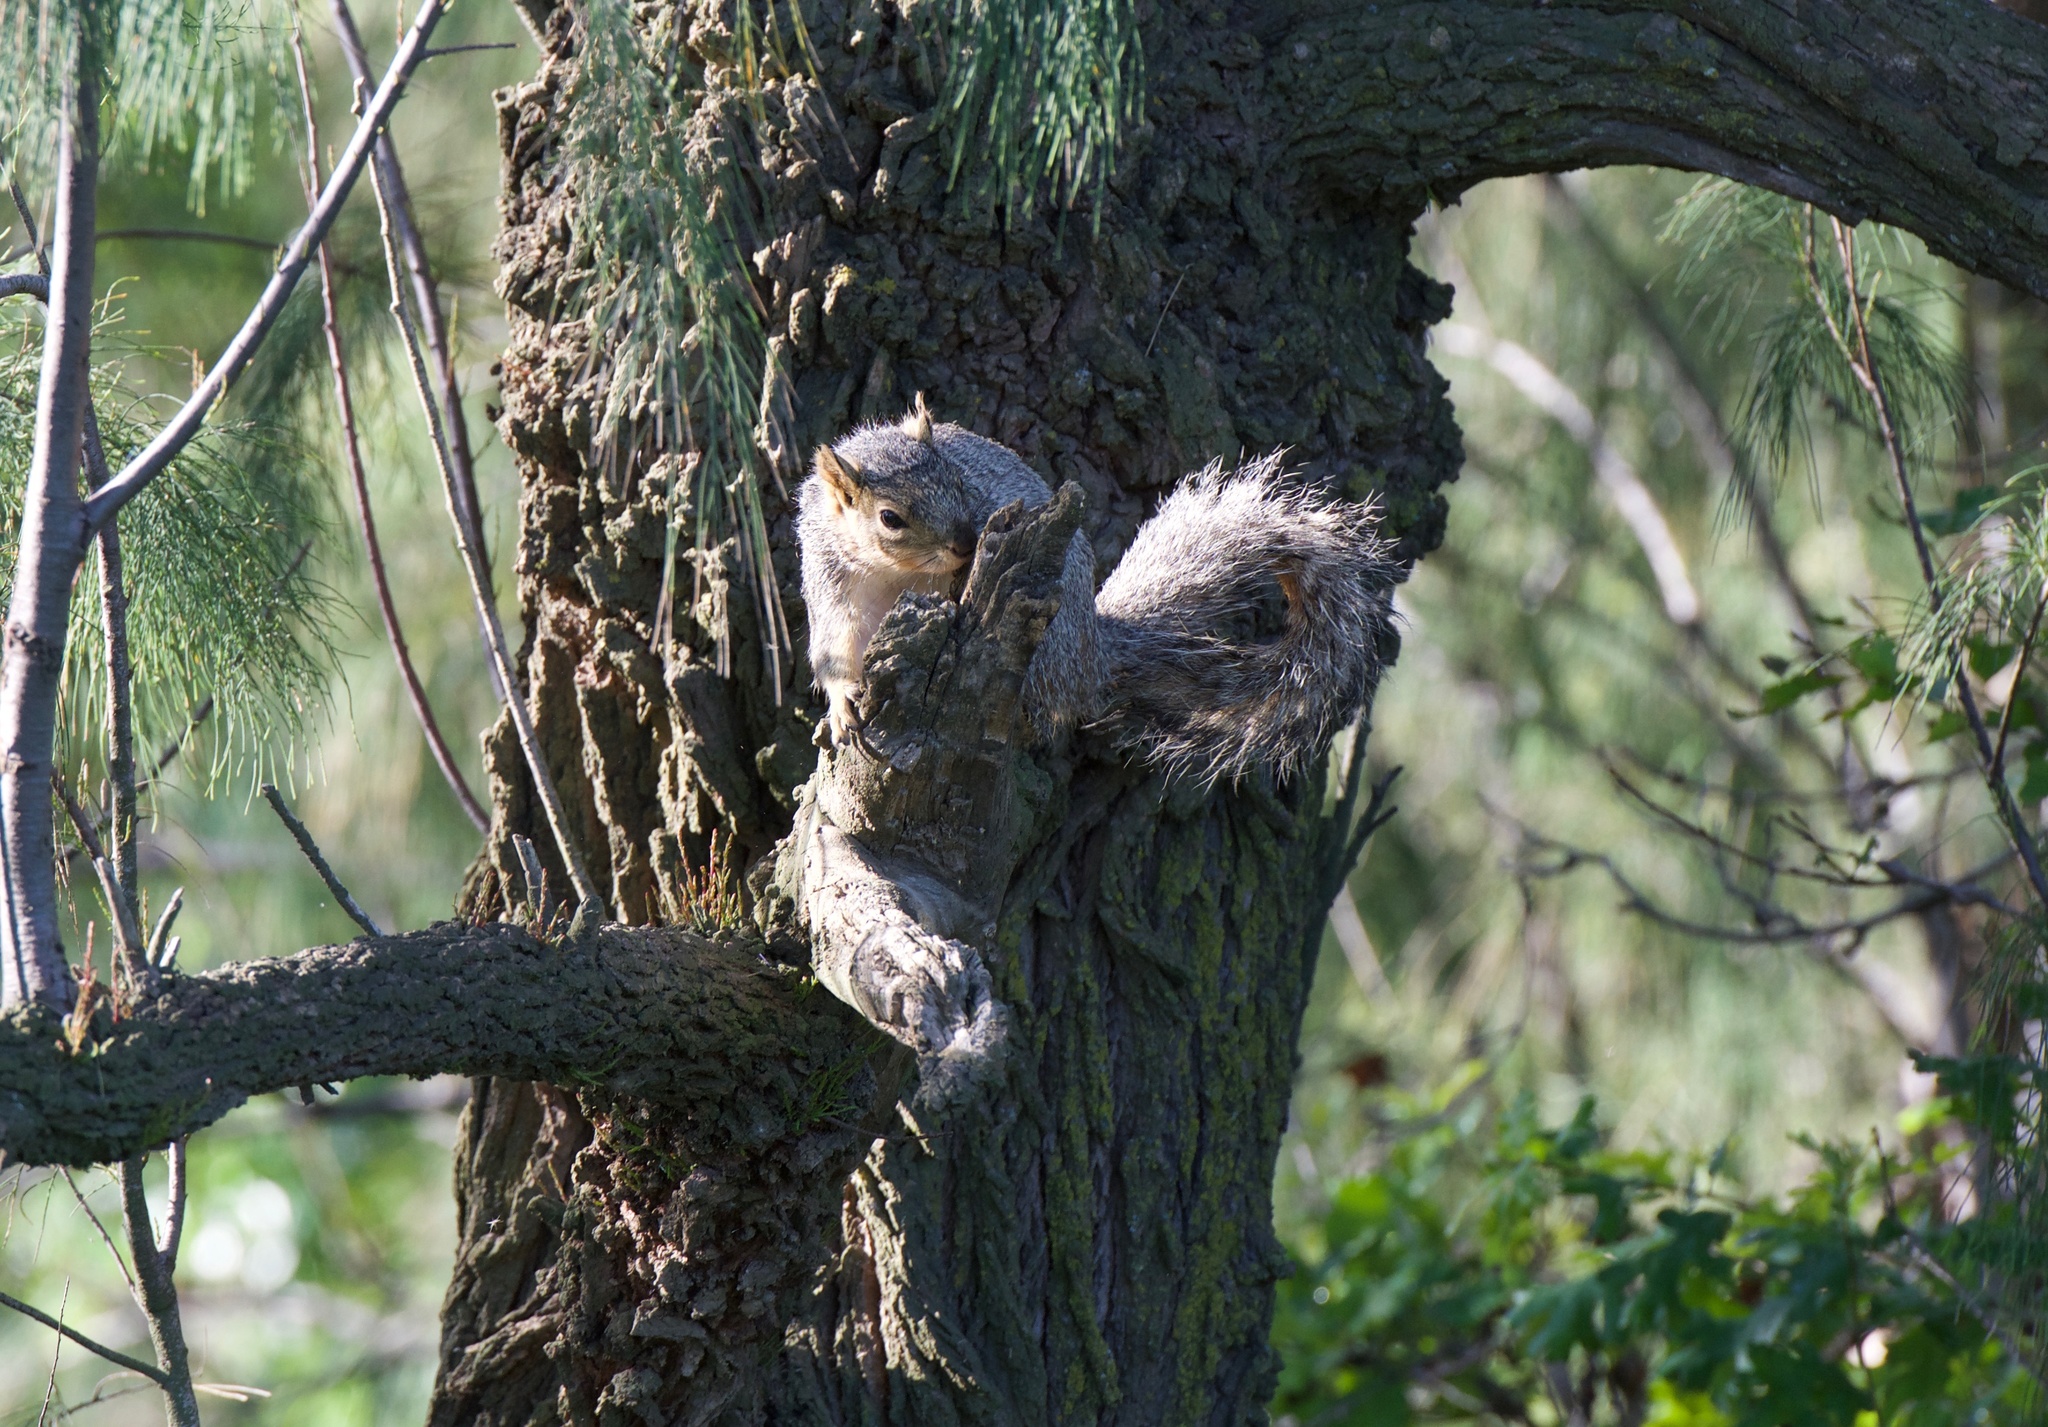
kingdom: Animalia
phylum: Chordata
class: Mammalia
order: Rodentia
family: Sciuridae
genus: Sciurus
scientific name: Sciurus niger
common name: Fox squirrel
